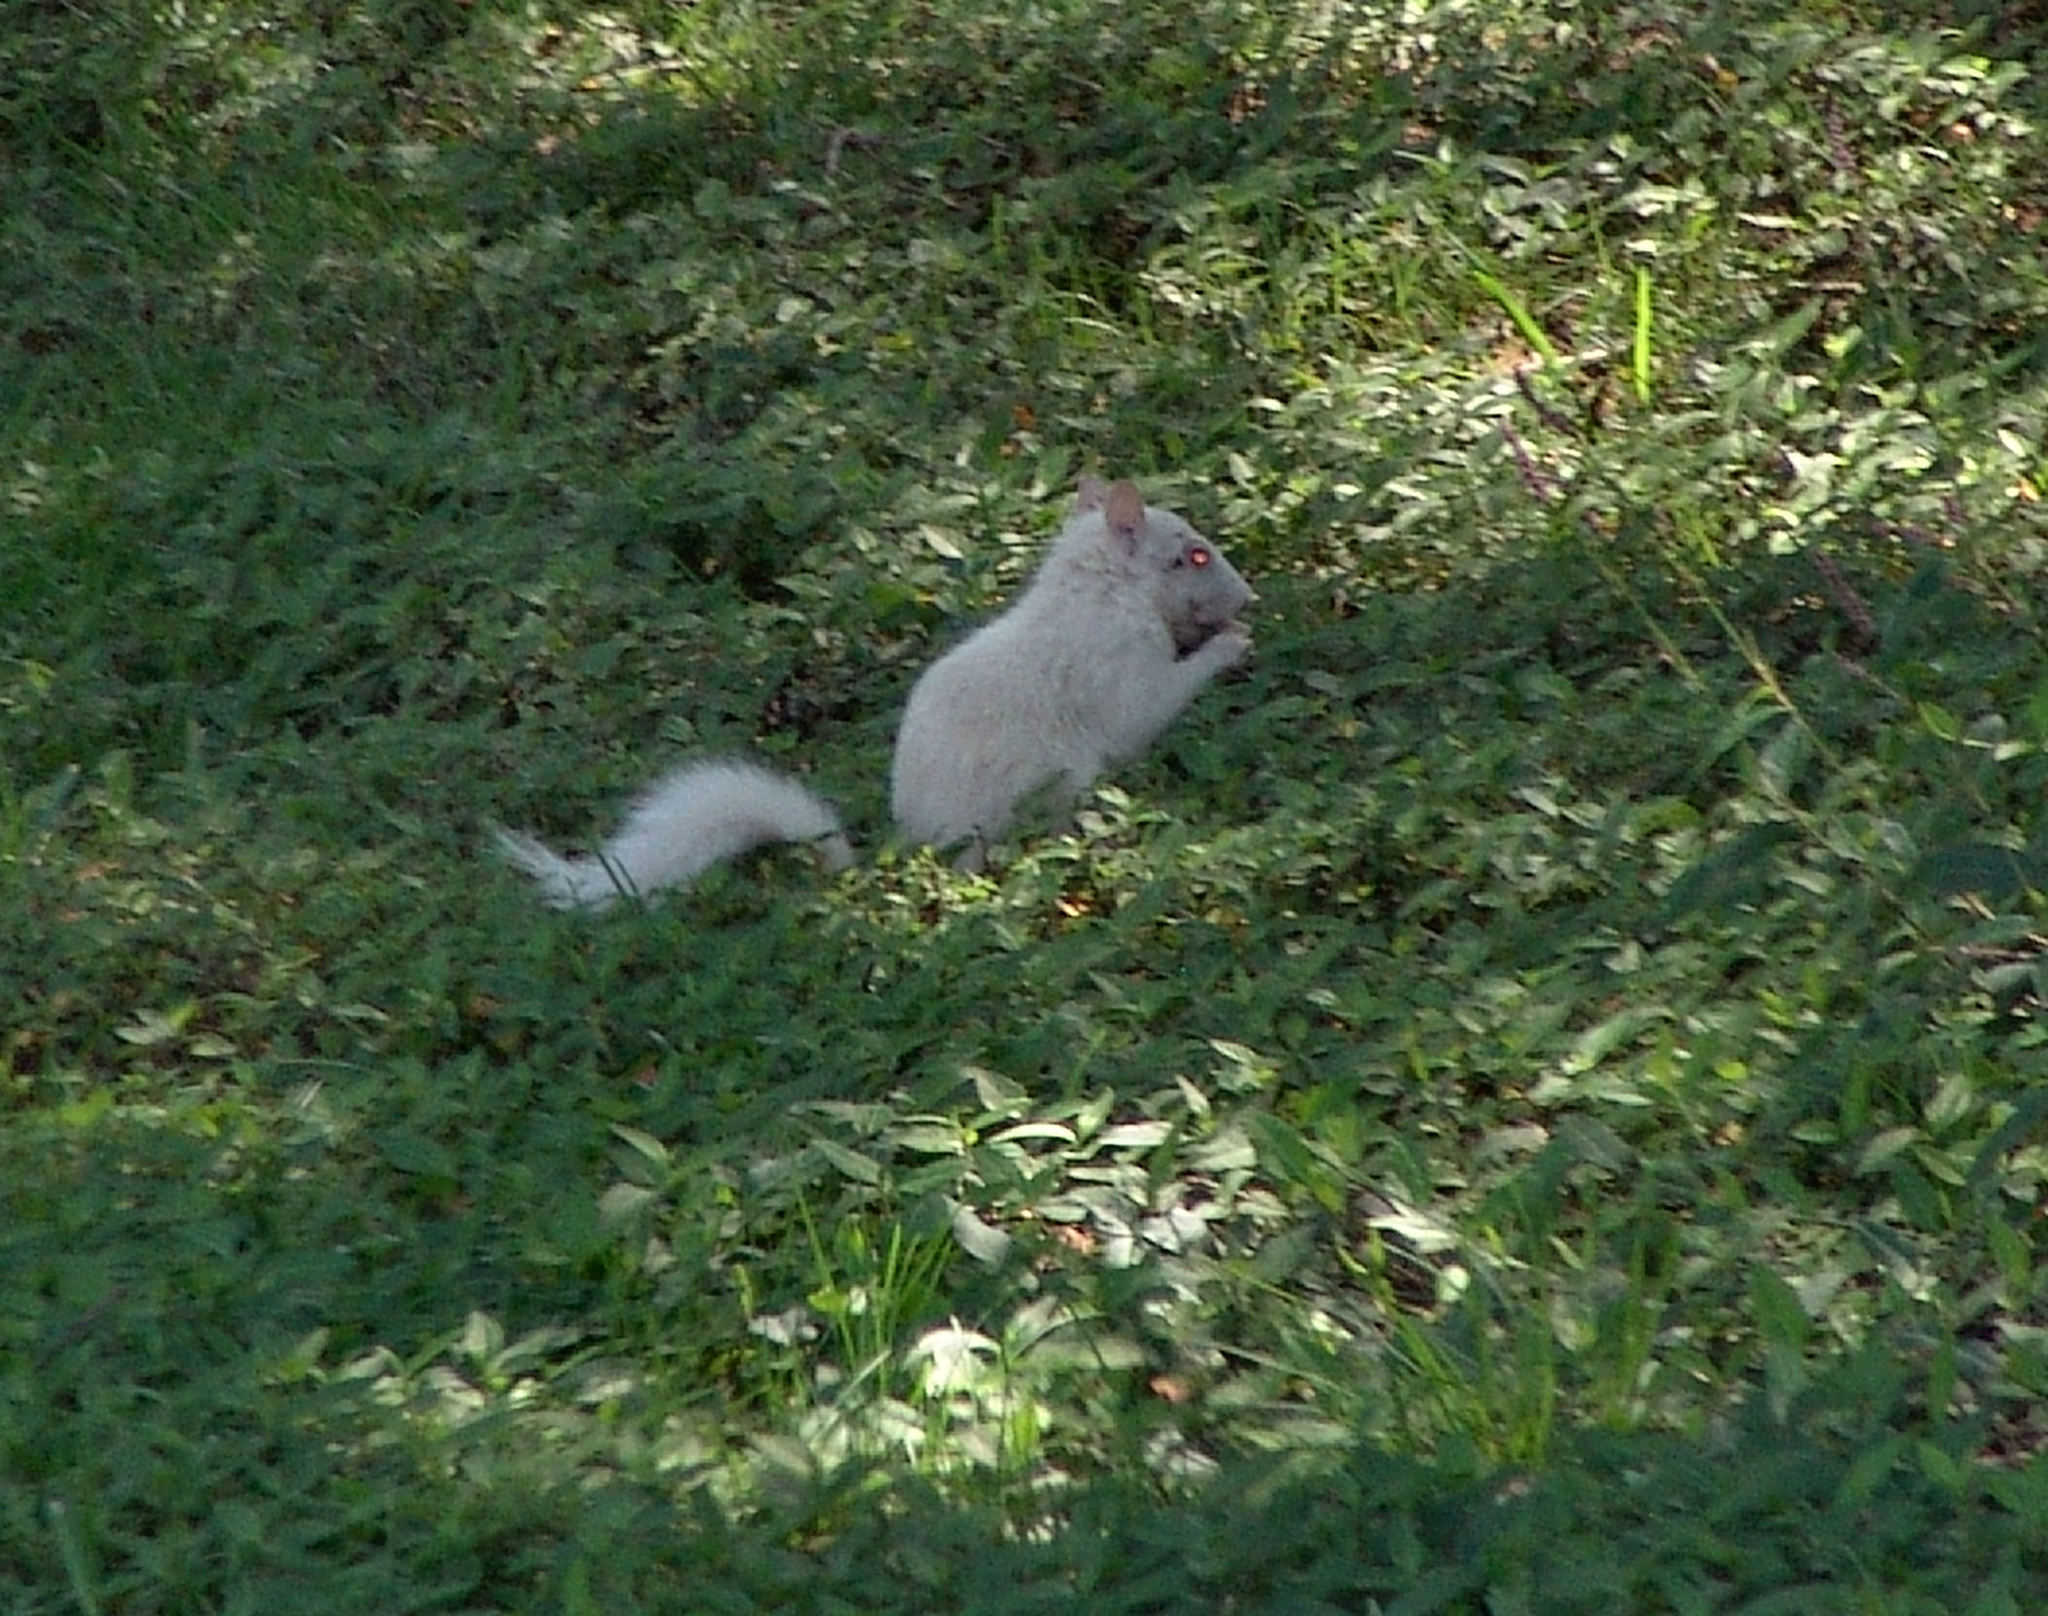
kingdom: Animalia
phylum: Chordata
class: Mammalia
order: Rodentia
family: Sciuridae
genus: Sciurus
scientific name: Sciurus carolinensis
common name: Eastern gray squirrel
